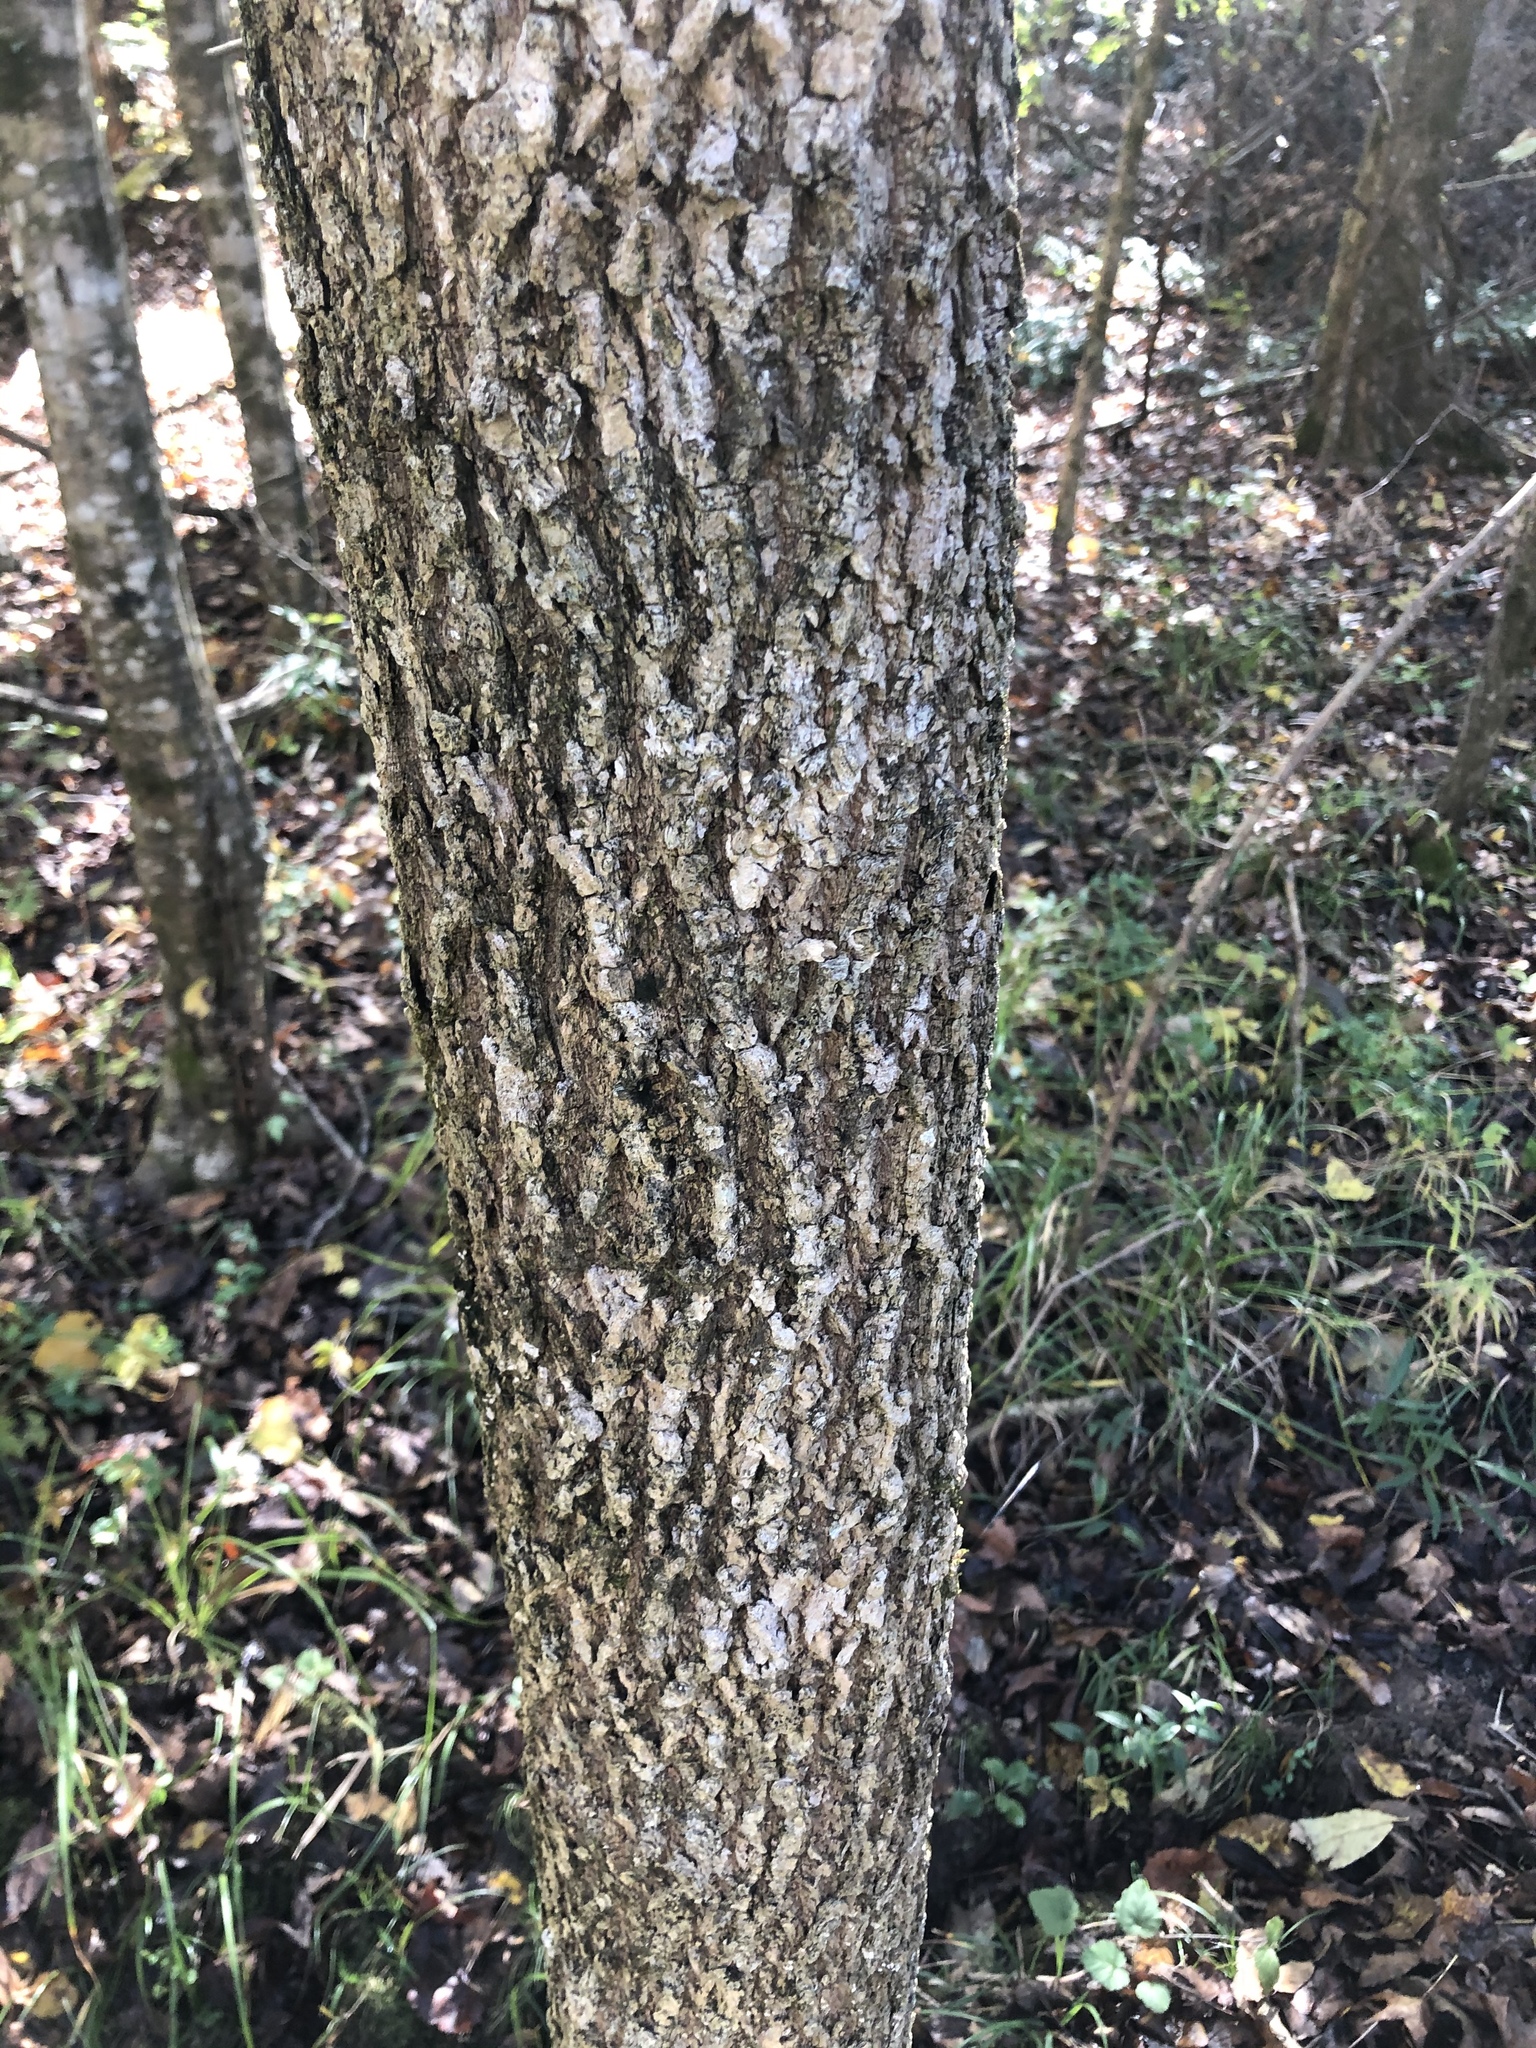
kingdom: Plantae
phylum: Tracheophyta
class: Magnoliopsida
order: Lamiales
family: Oleaceae
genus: Fraxinus
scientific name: Fraxinus americana
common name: White ash
